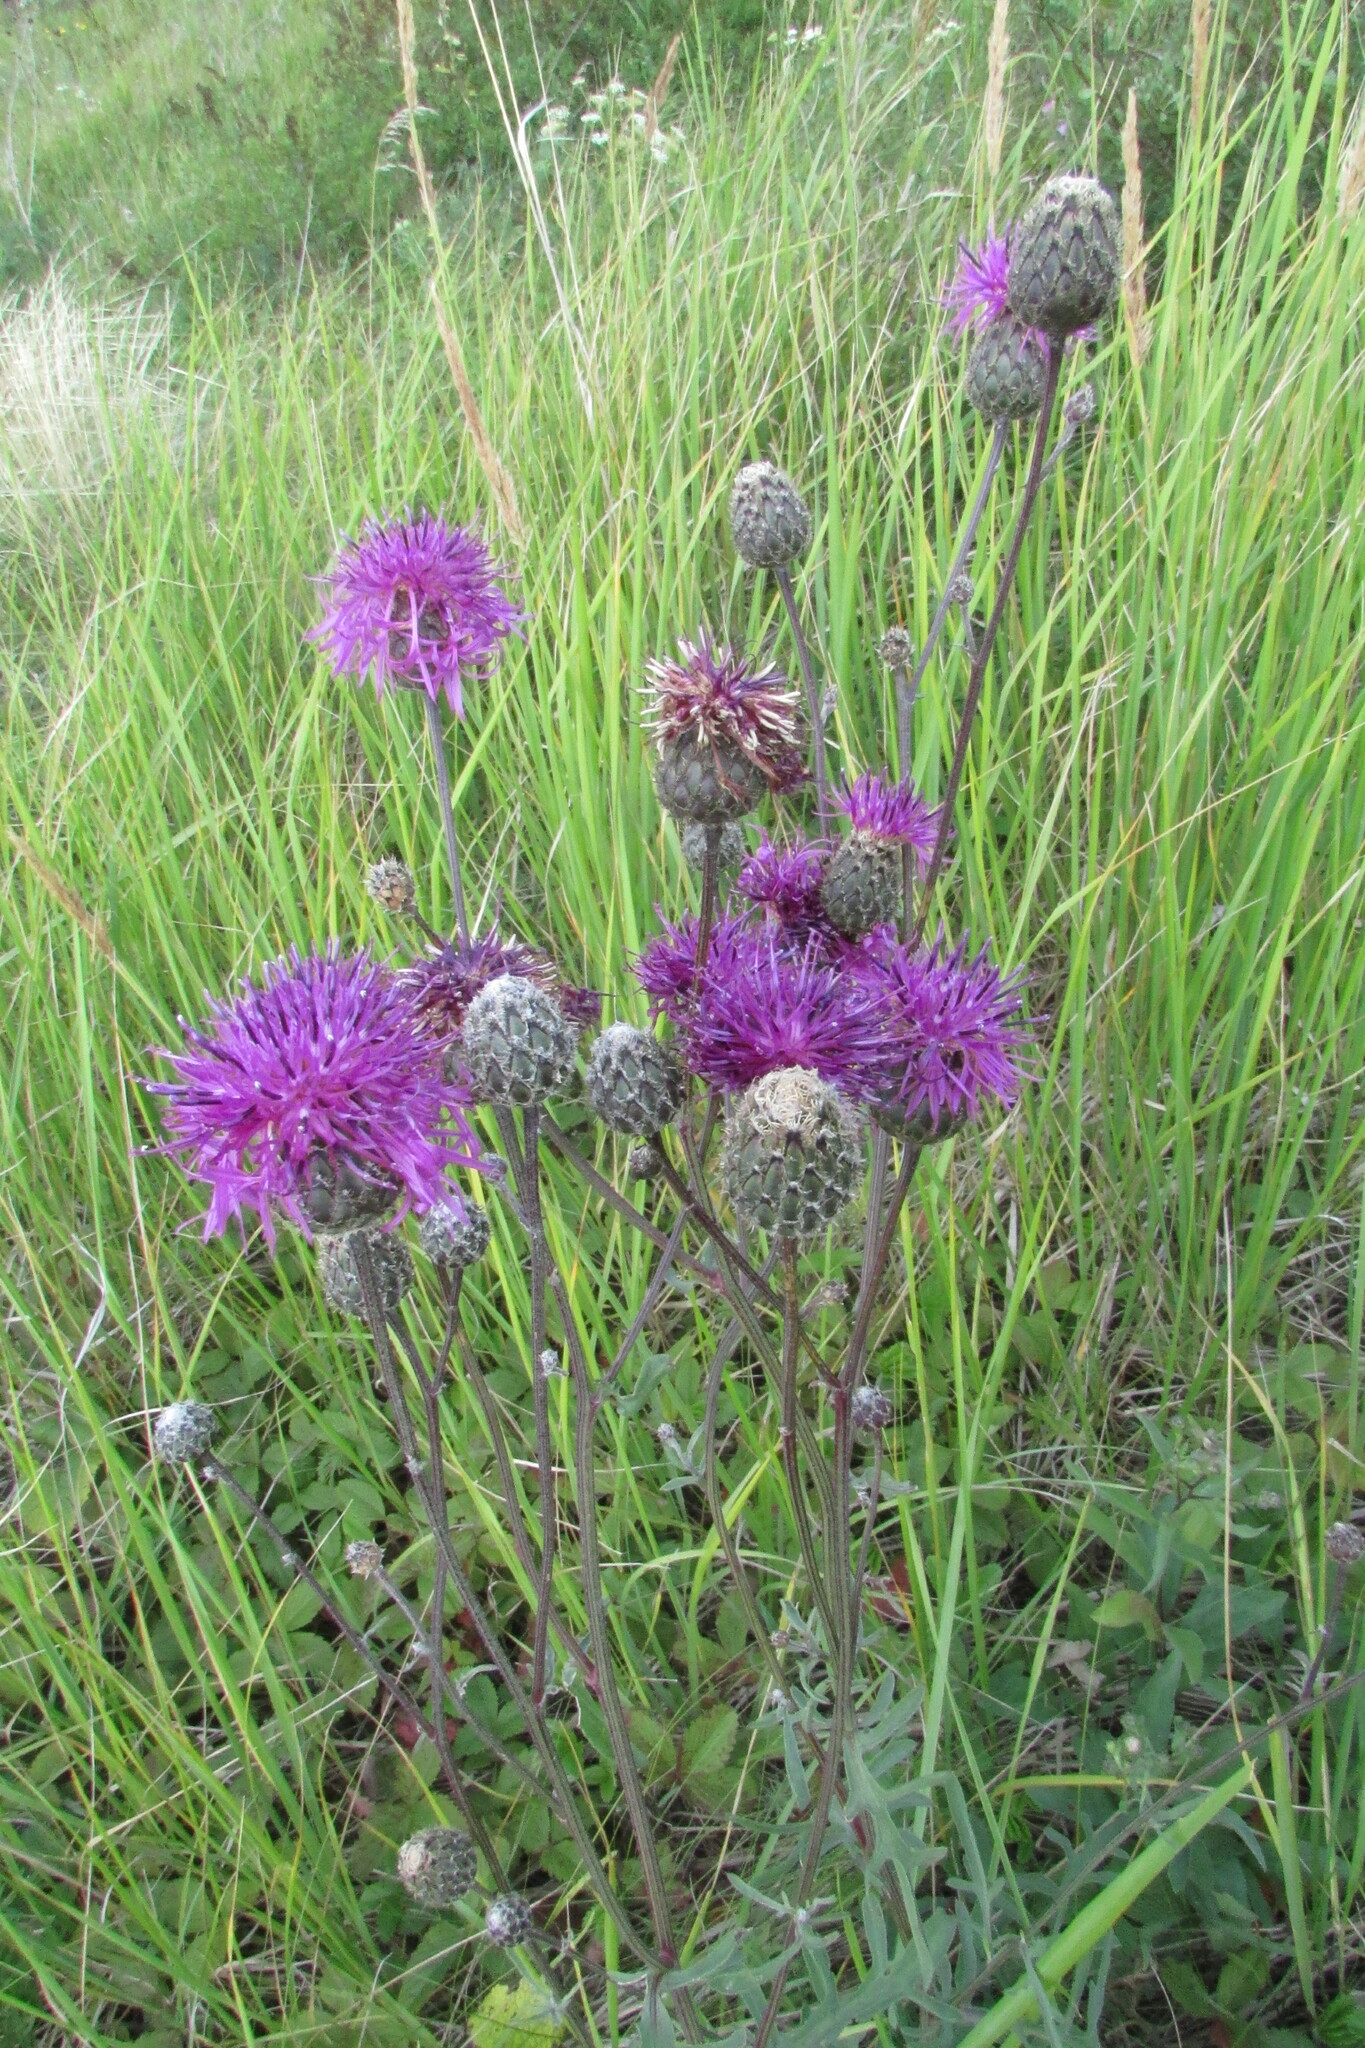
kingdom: Plantae
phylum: Tracheophyta
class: Magnoliopsida
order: Asterales
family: Asteraceae
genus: Centaurea
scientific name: Centaurea scabiosa
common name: Greater knapweed
